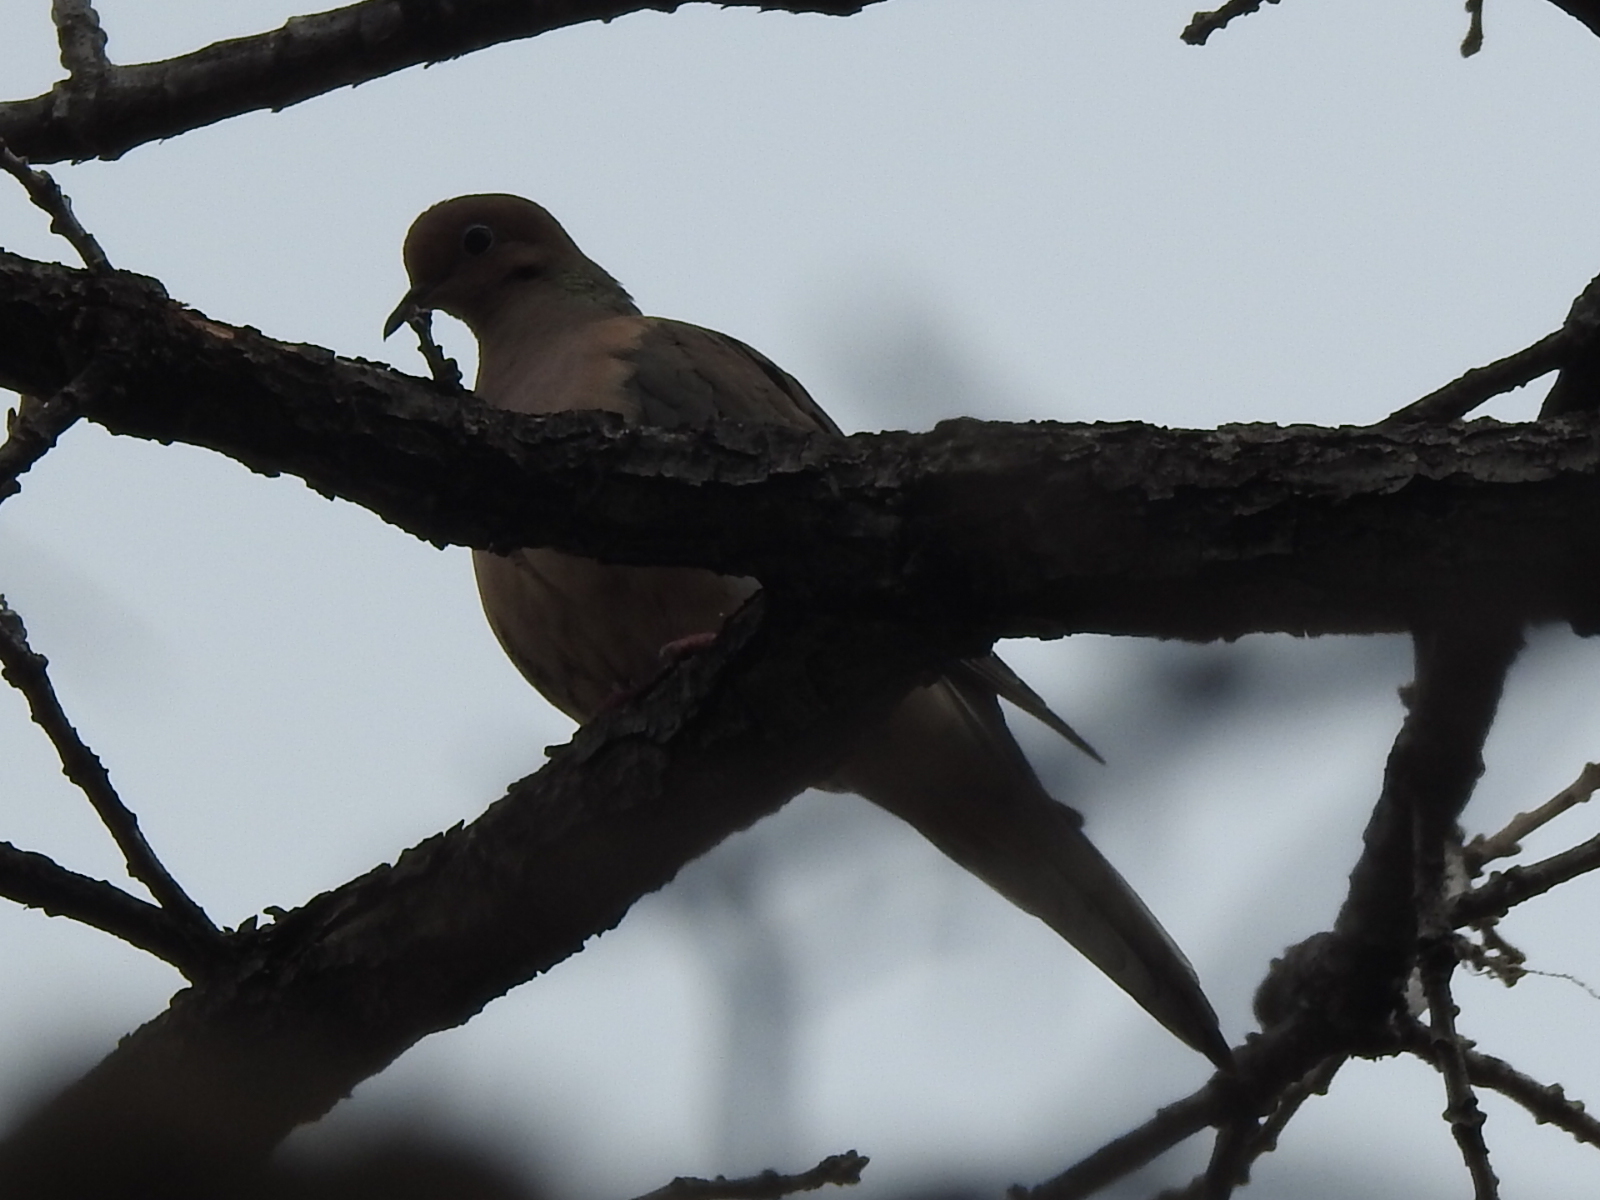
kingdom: Animalia
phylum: Chordata
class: Aves
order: Columbiformes
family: Columbidae
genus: Zenaida
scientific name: Zenaida macroura
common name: Mourning dove
